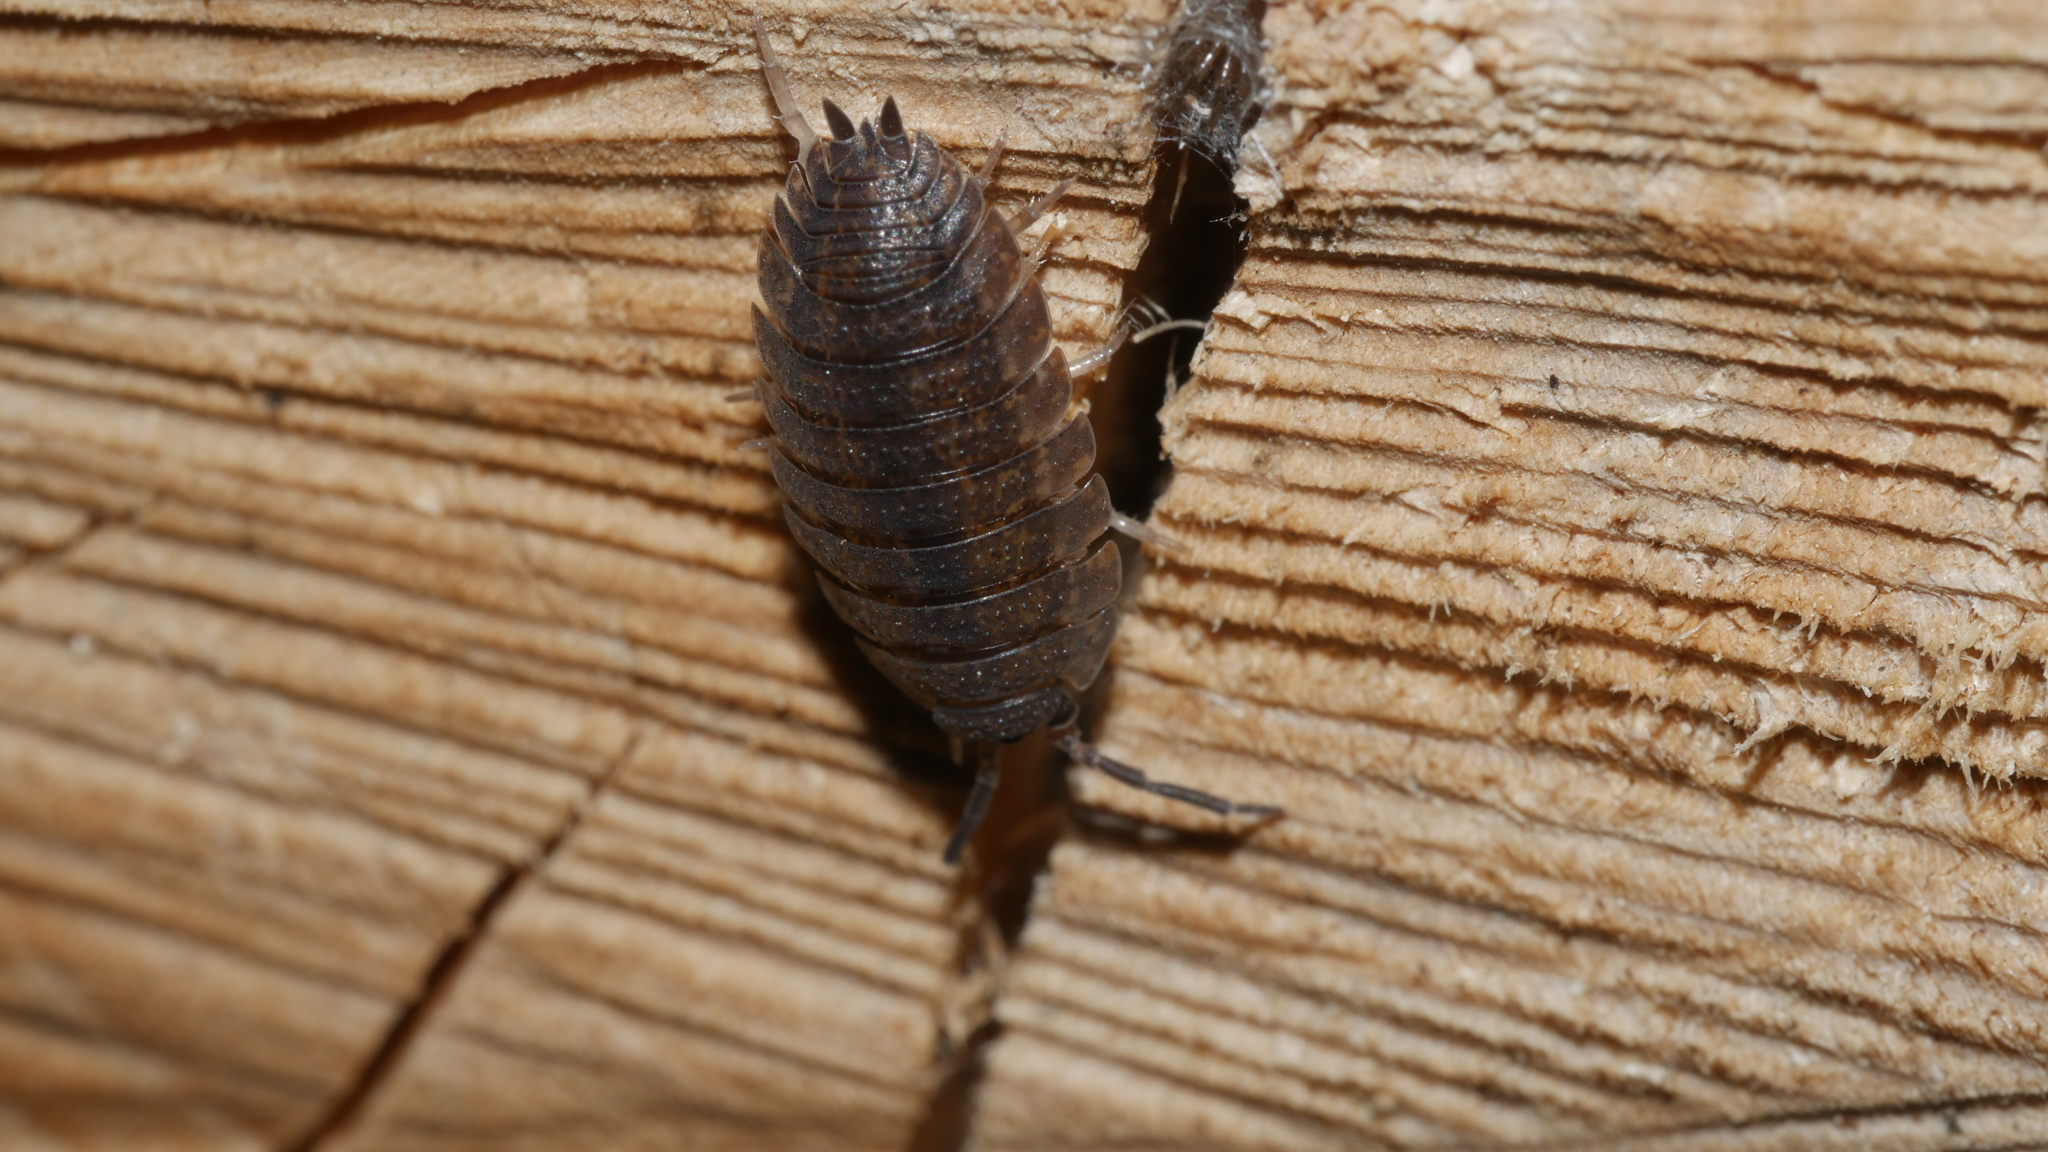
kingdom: Animalia
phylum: Arthropoda
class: Malacostraca
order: Isopoda
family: Porcellionidae
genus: Porcellio
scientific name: Porcellio scaber
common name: Common rough woodlouse
